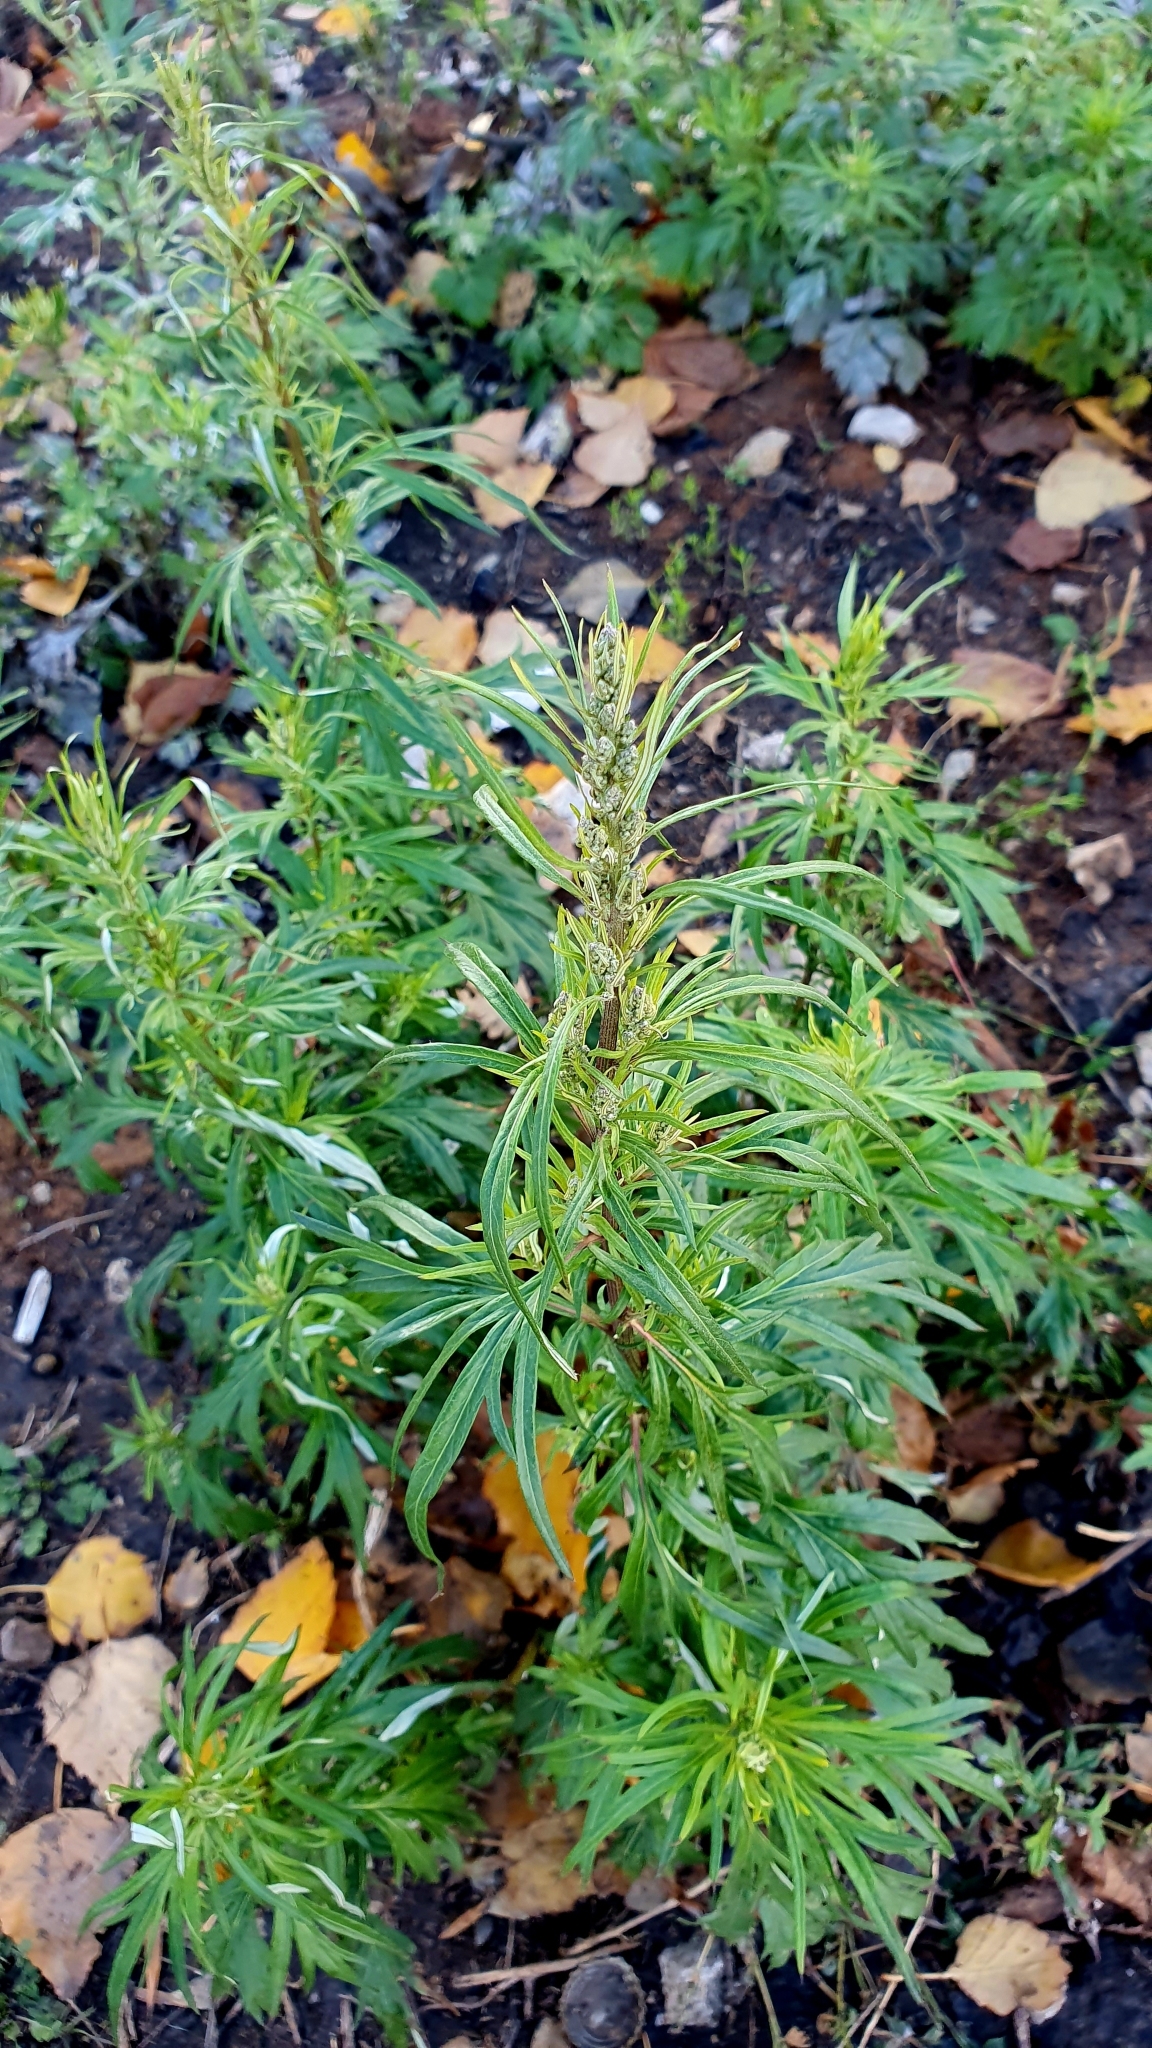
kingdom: Plantae
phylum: Tracheophyta
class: Magnoliopsida
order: Asterales
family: Asteraceae
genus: Artemisia
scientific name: Artemisia vulgaris
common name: Mugwort
